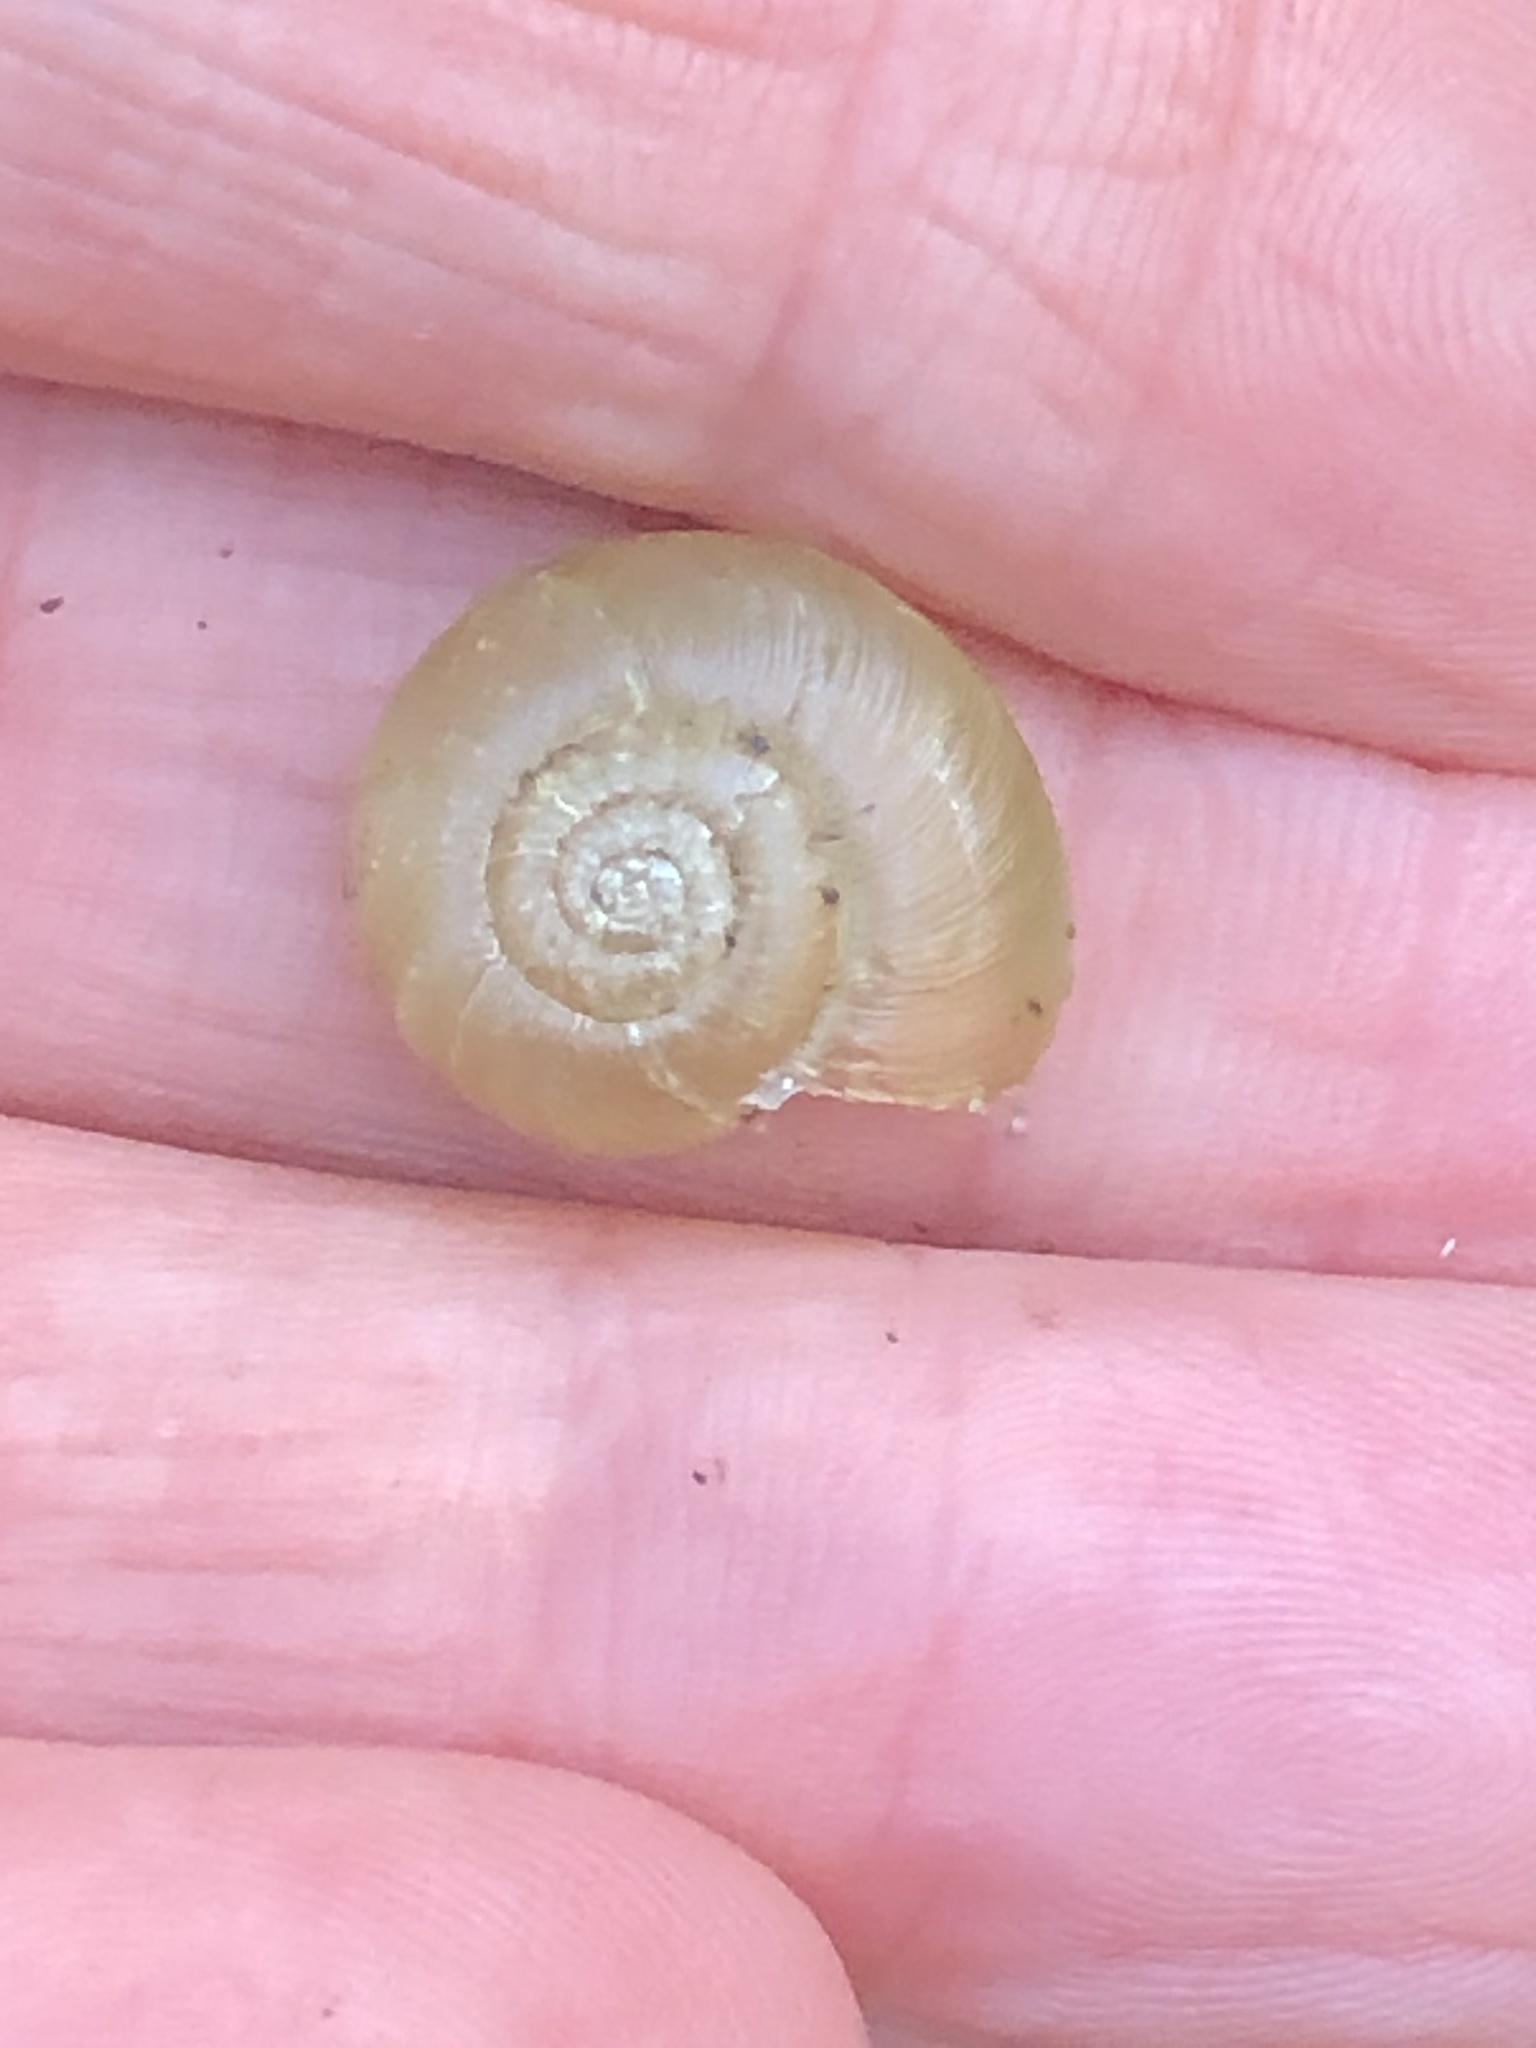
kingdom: Animalia
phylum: Mollusca
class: Gastropoda
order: Stylommatophora
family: Haplotrematidae
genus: Haplotrema
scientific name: Haplotrema minimum
